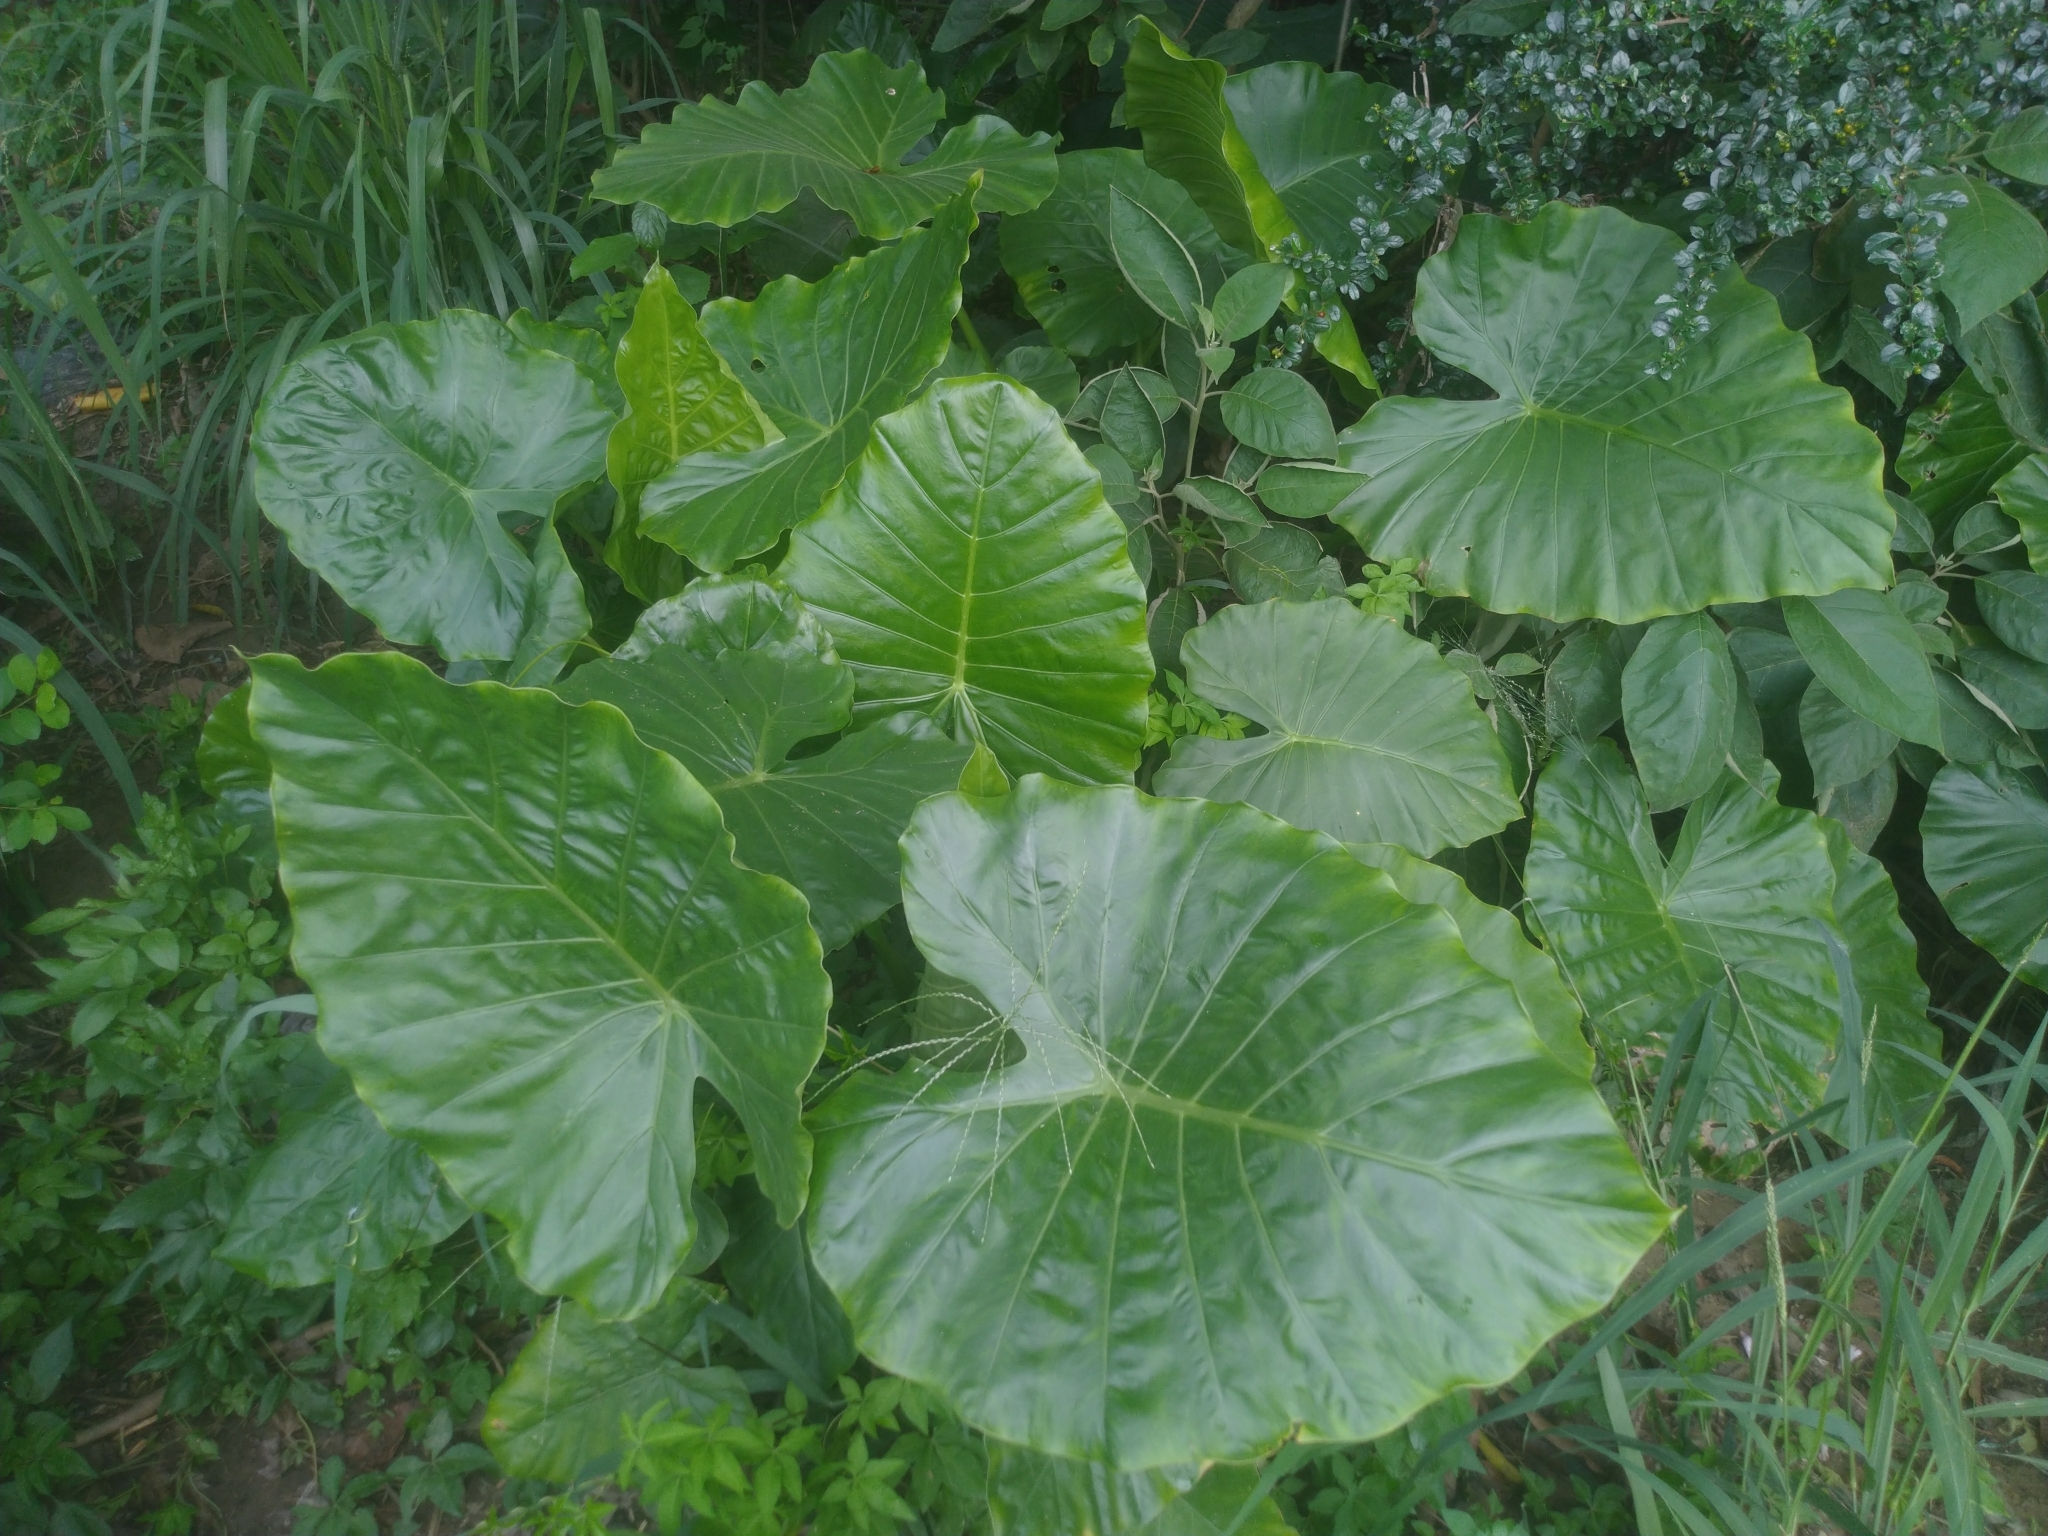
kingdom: Plantae
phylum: Tracheophyta
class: Liliopsida
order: Alismatales
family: Araceae
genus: Alocasia
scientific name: Alocasia odora
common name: Asian taro
